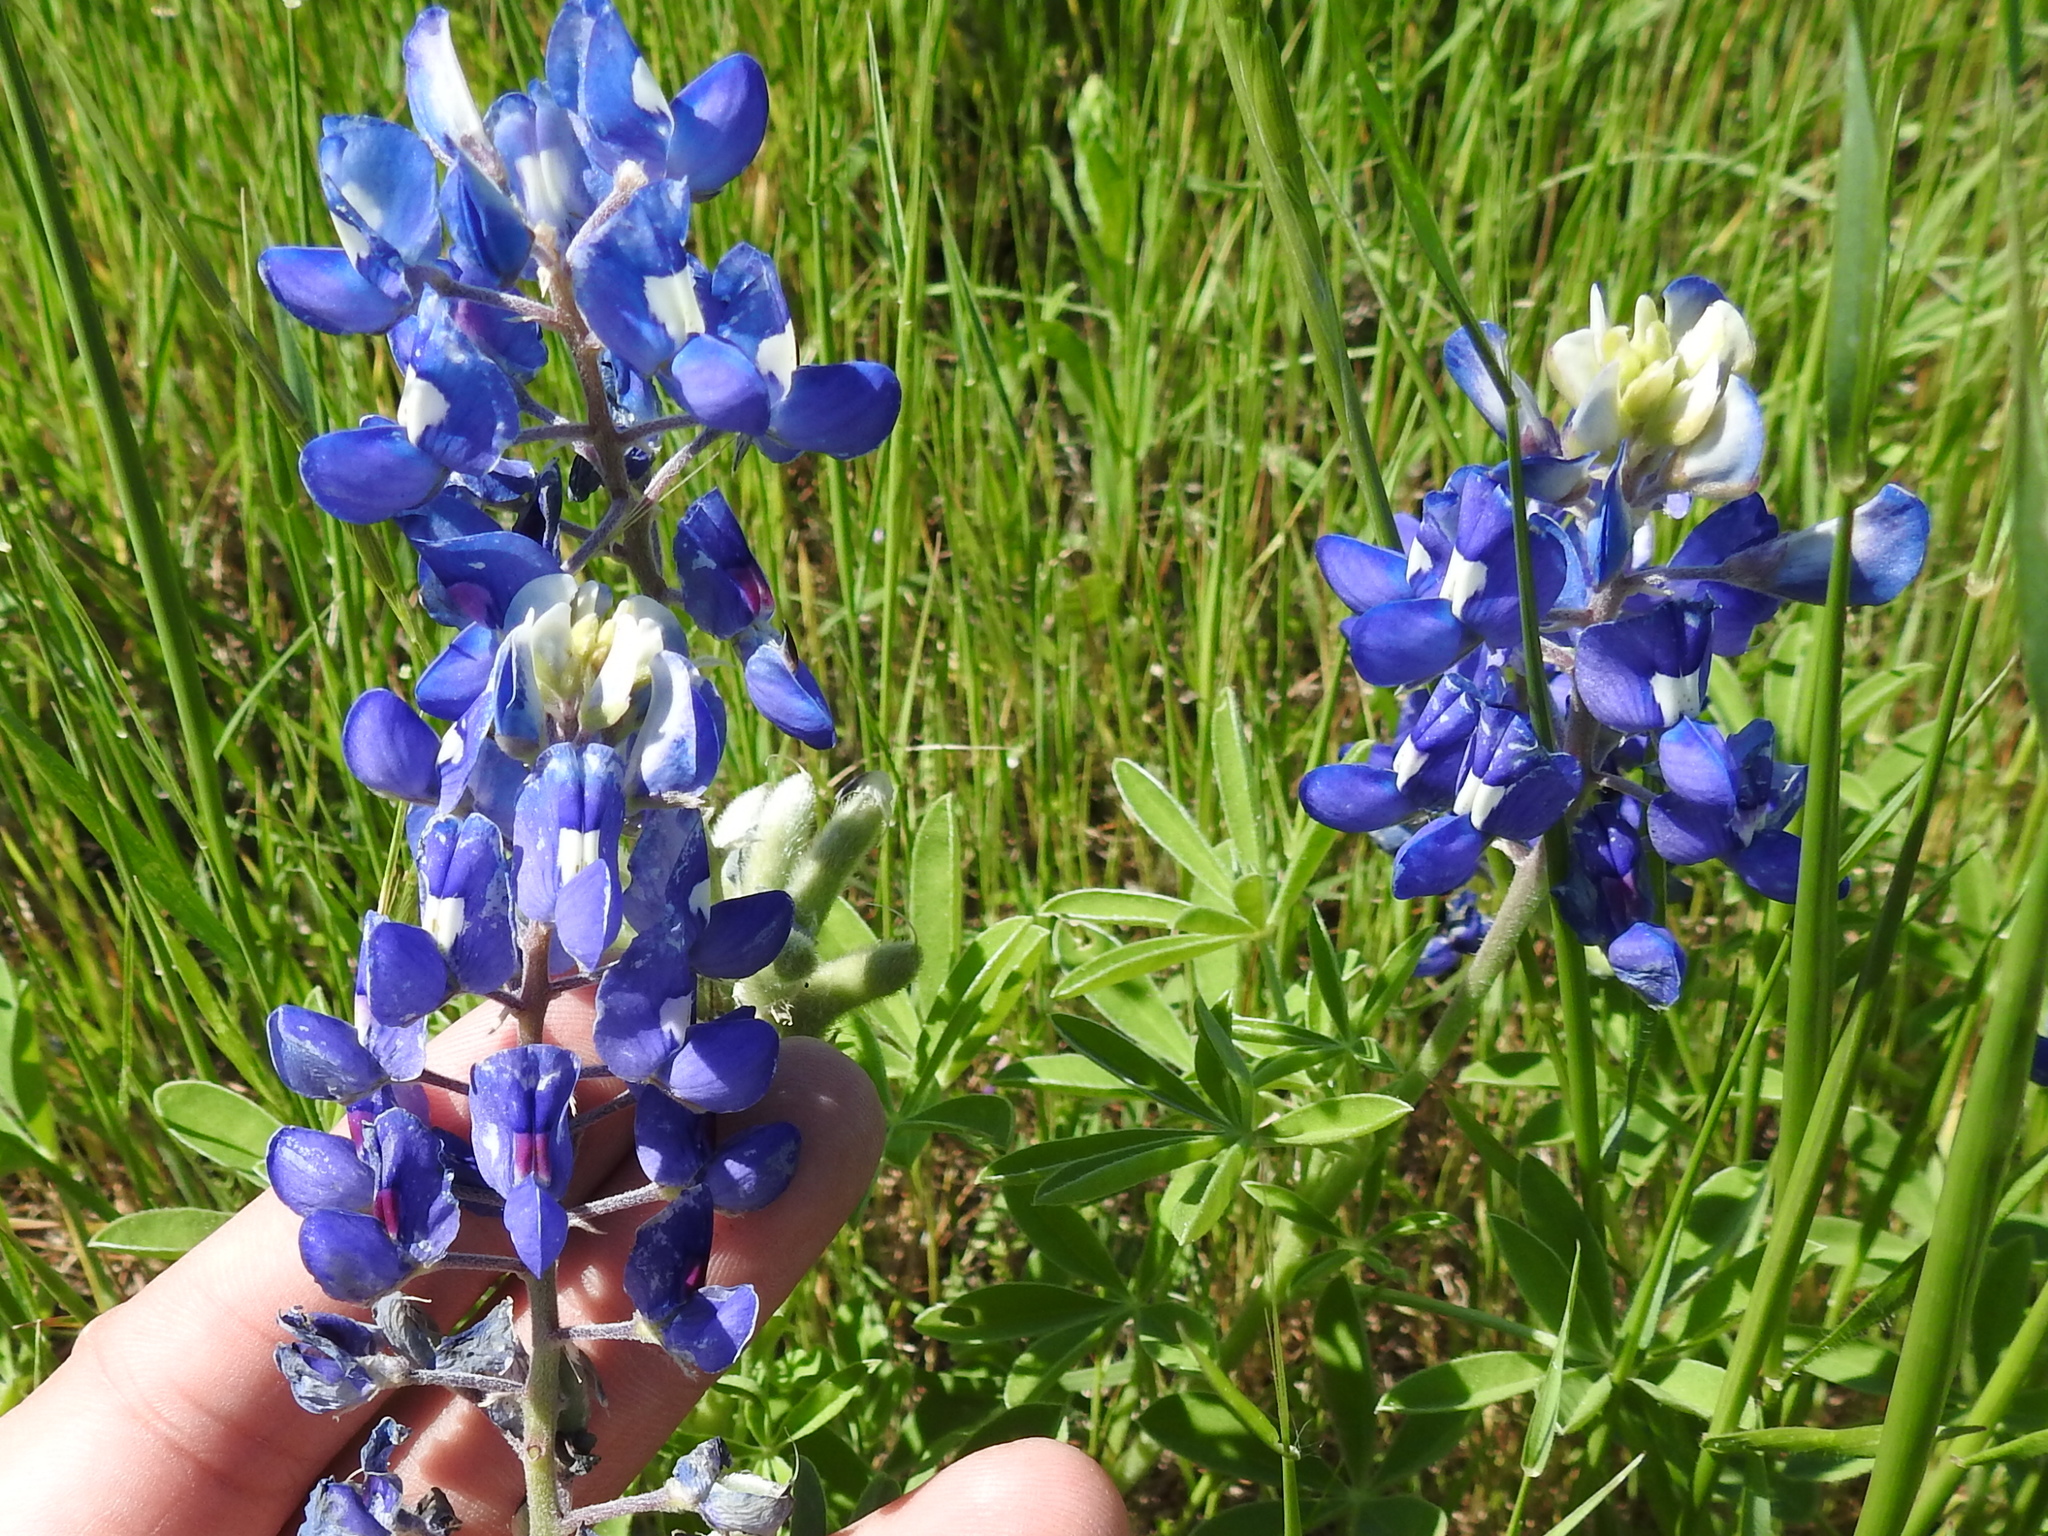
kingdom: Plantae
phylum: Tracheophyta
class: Magnoliopsida
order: Fabales
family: Fabaceae
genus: Lupinus
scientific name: Lupinus texensis
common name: Texas bluebonnet
